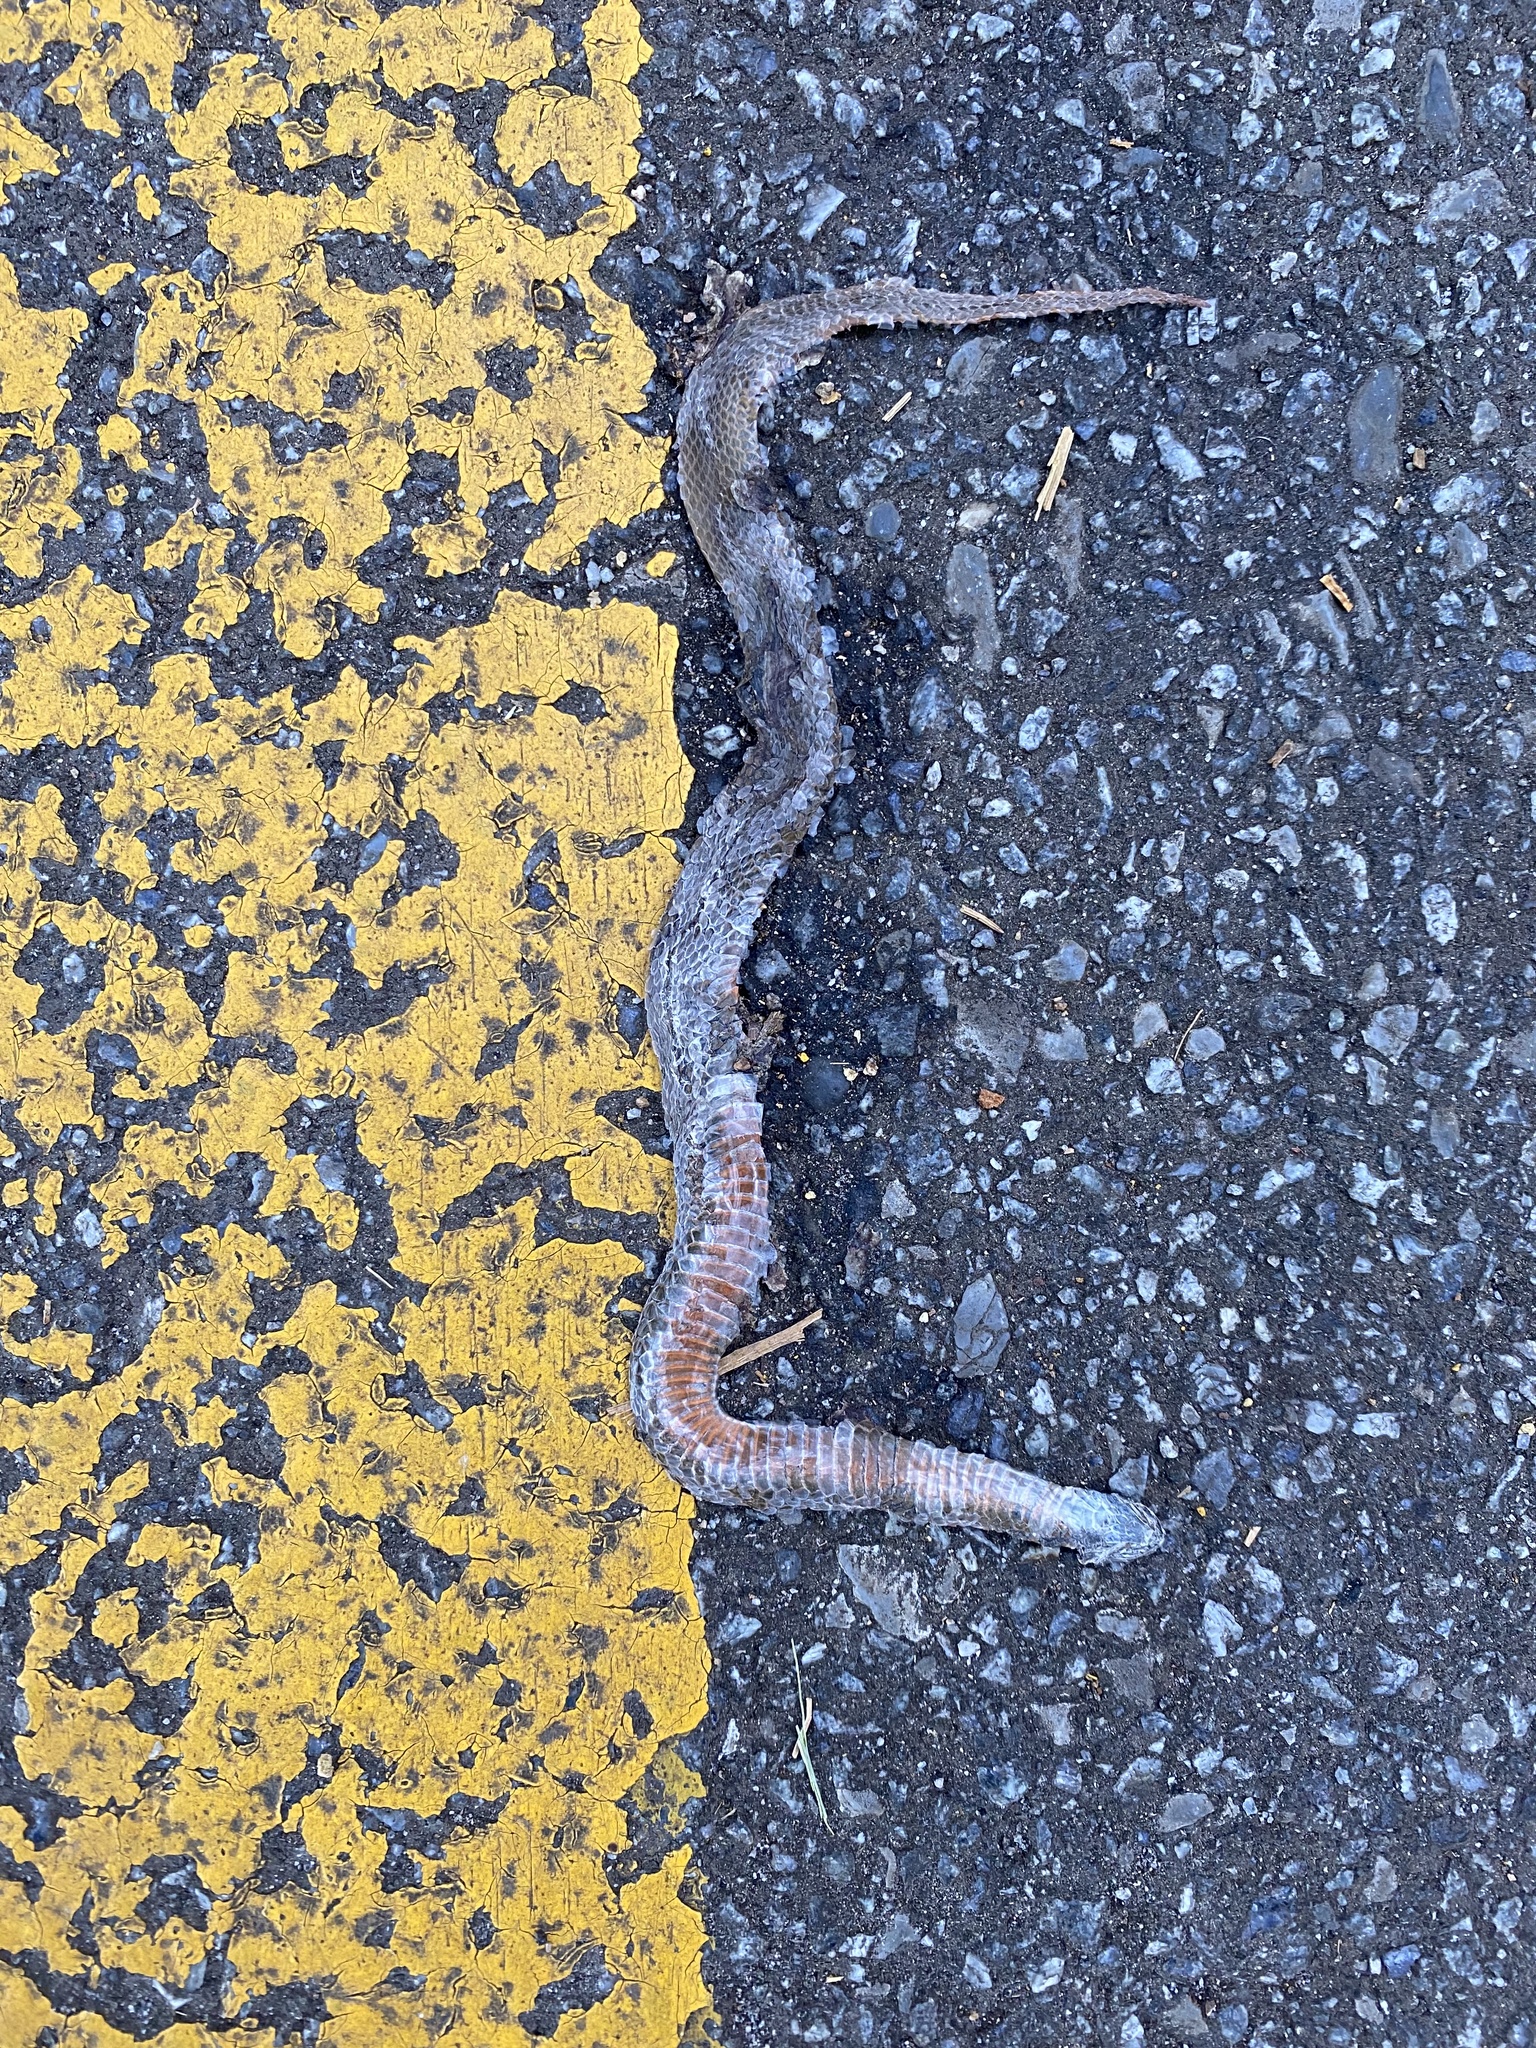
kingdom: Animalia
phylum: Chordata
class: Squamata
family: Colubridae
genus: Storeria
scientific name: Storeria occipitomaculata
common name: Redbelly snake
